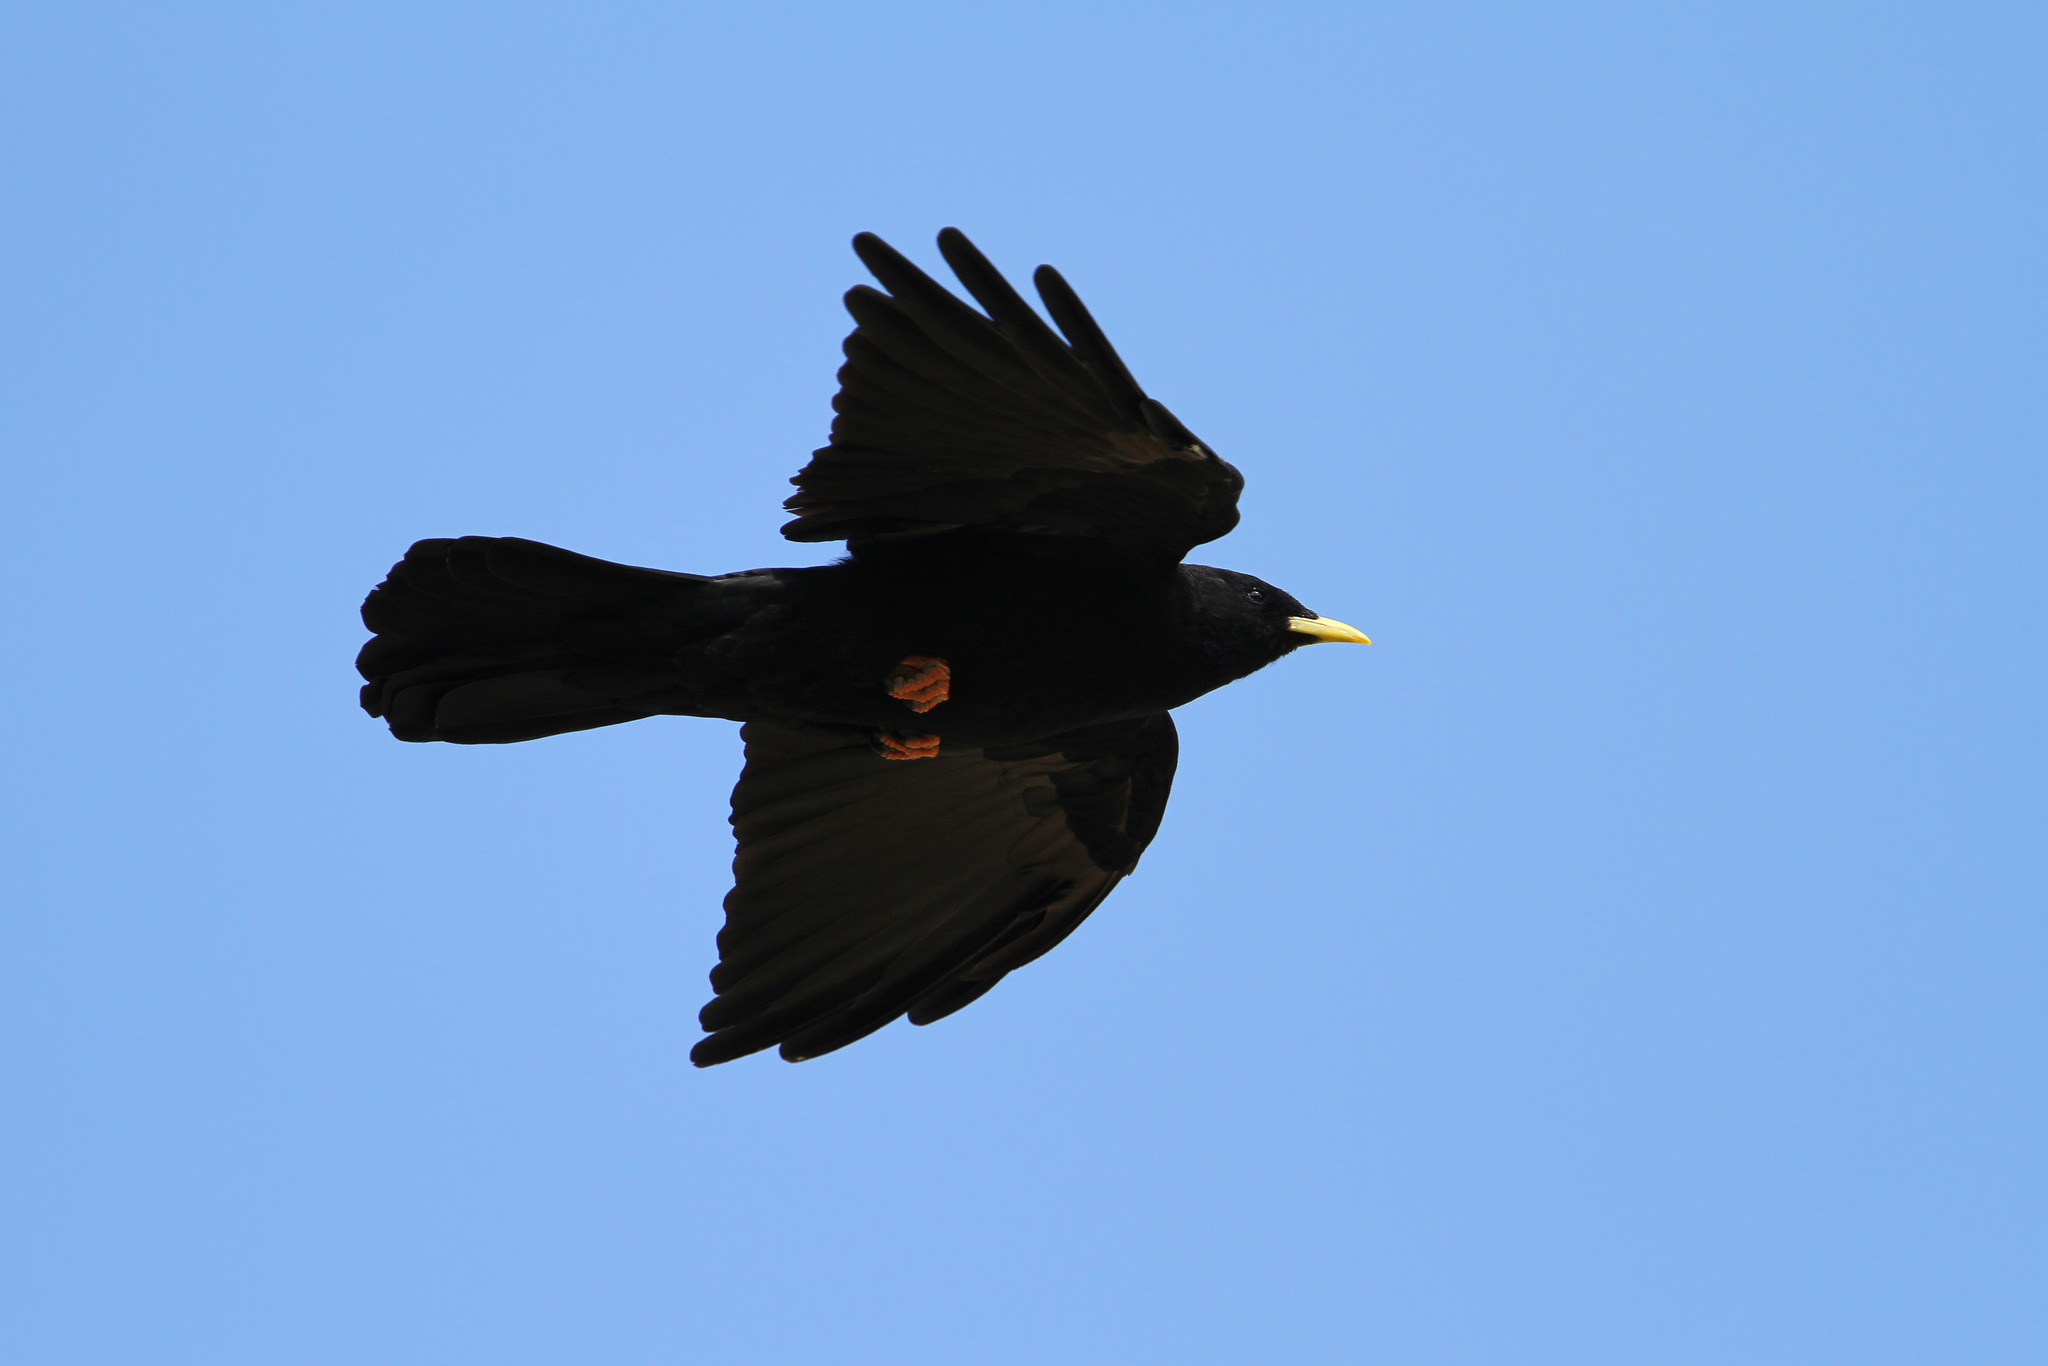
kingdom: Animalia
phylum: Chordata
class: Aves
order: Passeriformes
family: Corvidae
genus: Pyrrhocorax
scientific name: Pyrrhocorax graculus
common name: Alpine chough
